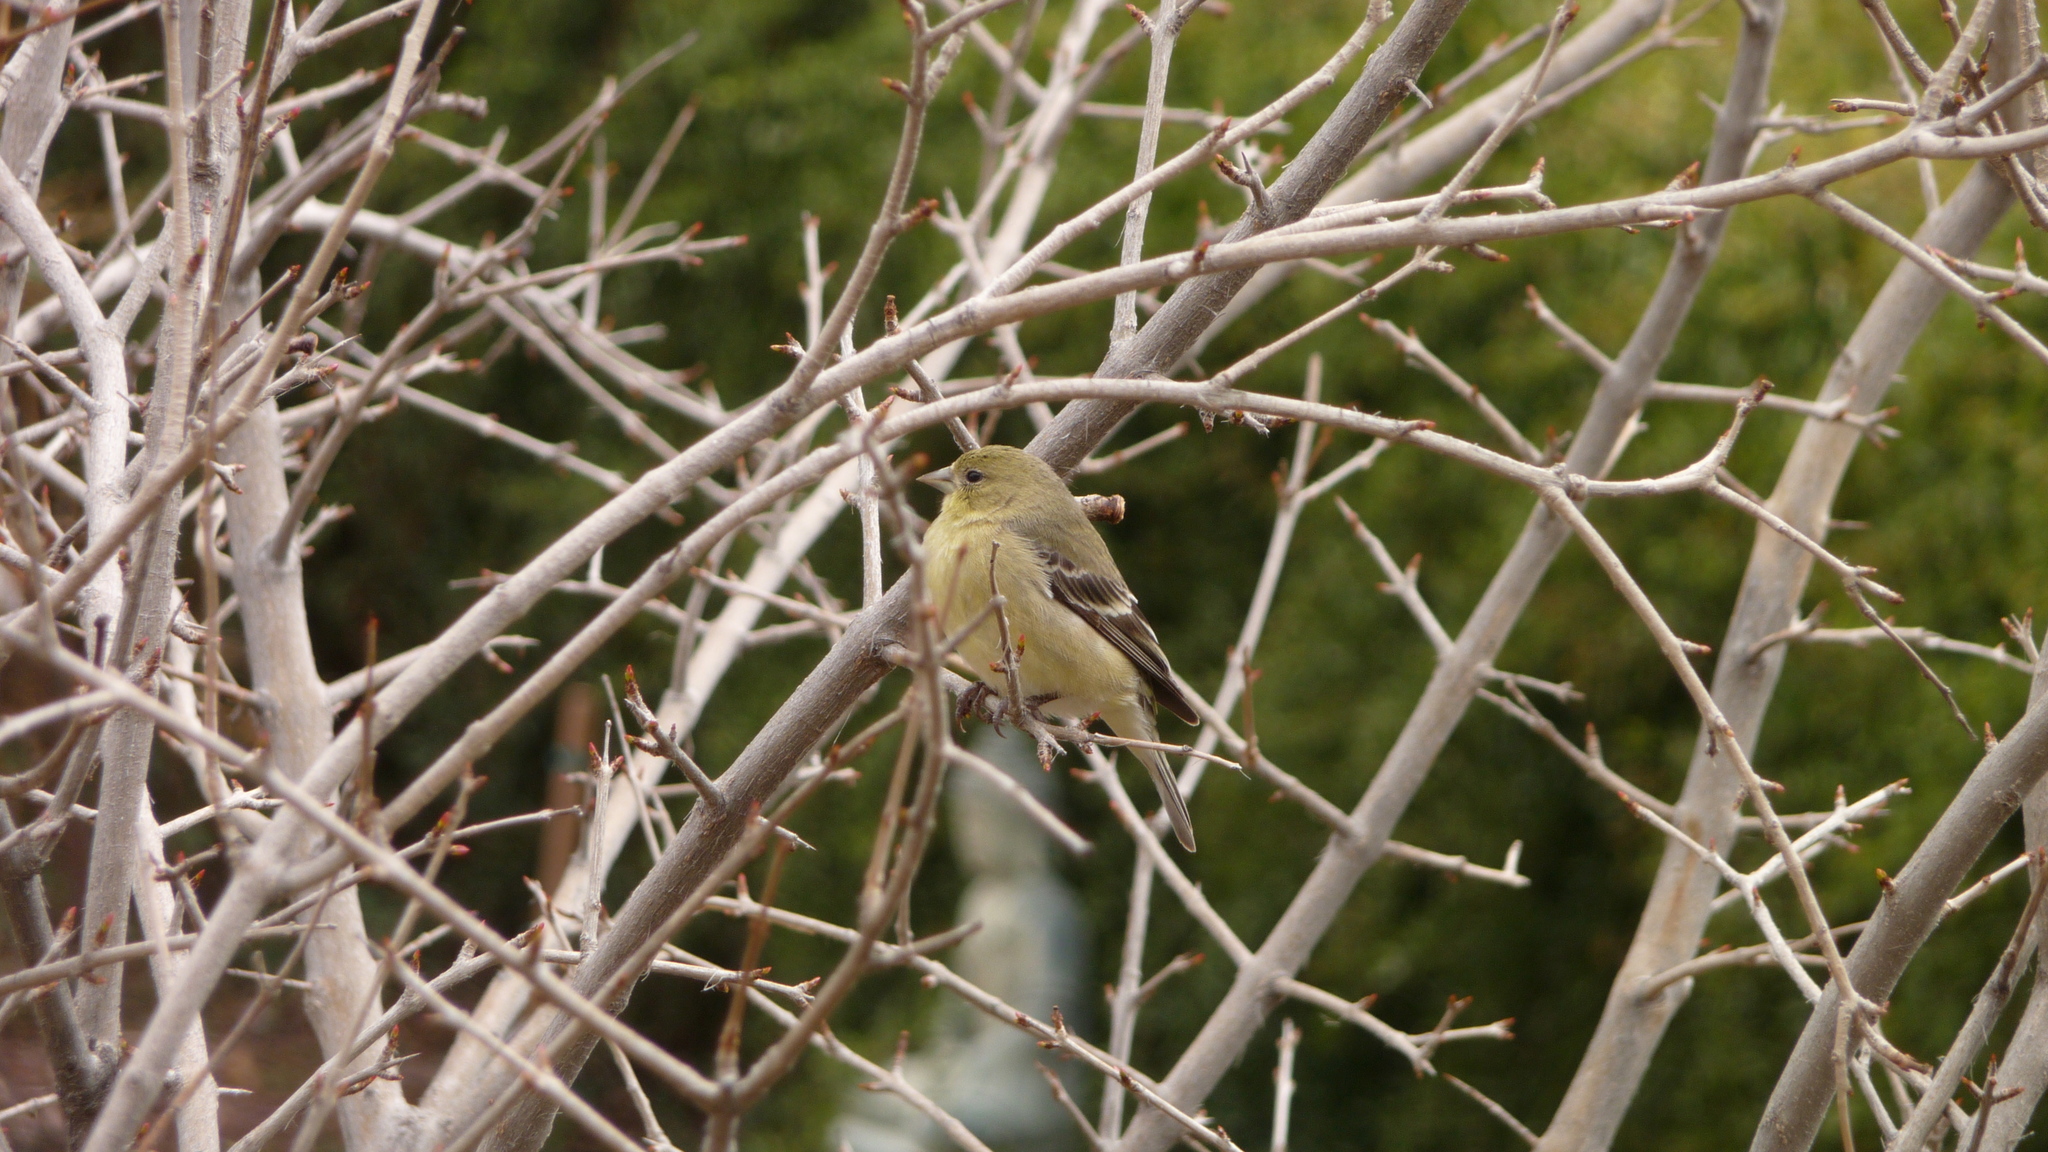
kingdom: Animalia
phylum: Chordata
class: Aves
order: Passeriformes
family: Fringillidae
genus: Spinus
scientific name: Spinus psaltria
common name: Lesser goldfinch
